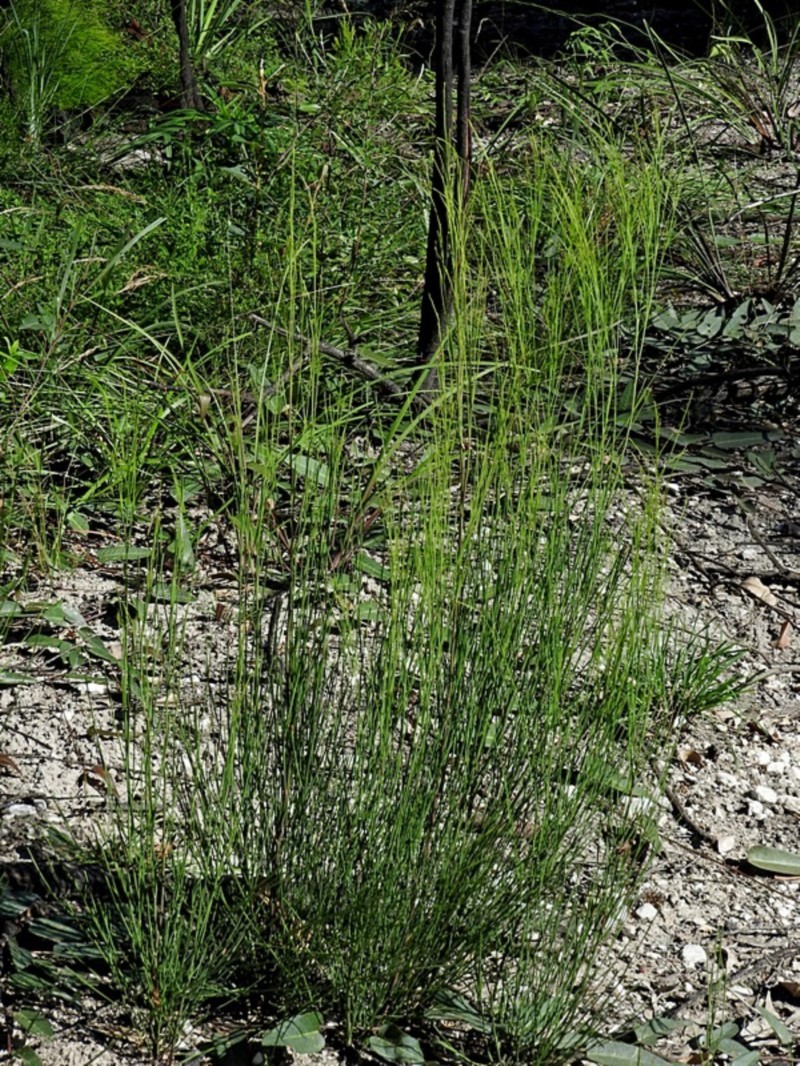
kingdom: Plantae
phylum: Tracheophyta
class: Magnoliopsida
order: Santalales
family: Santalaceae
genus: Exocarpos
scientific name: Exocarpos strictus
